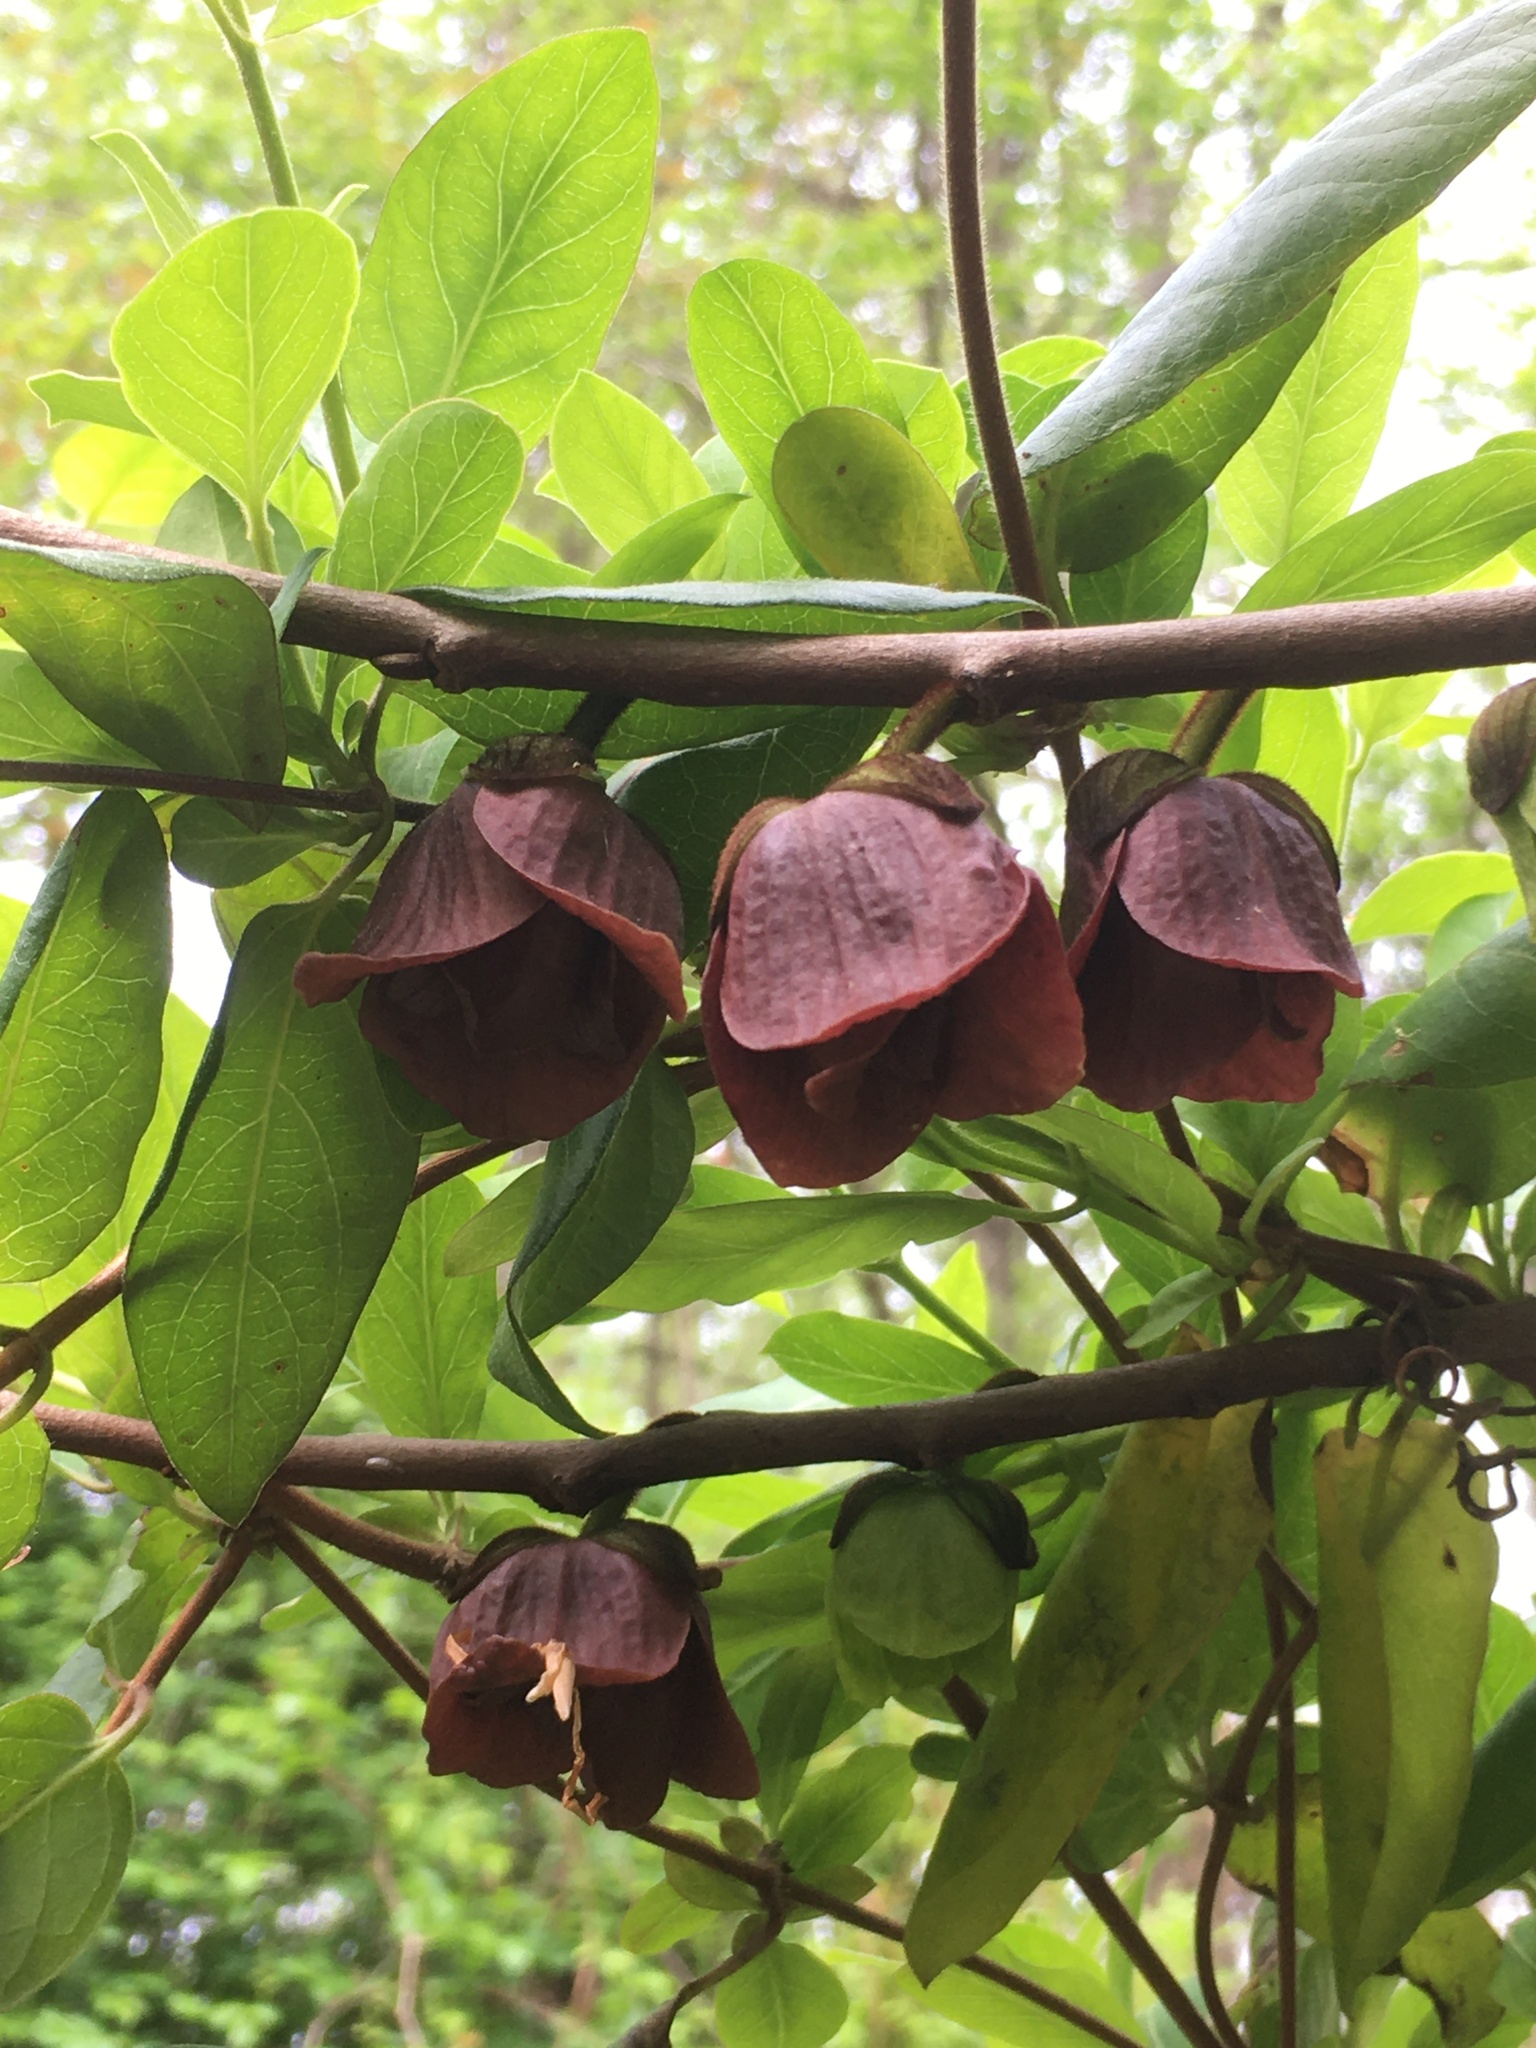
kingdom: Plantae
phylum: Tracheophyta
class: Magnoliopsida
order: Magnoliales
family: Annonaceae
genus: Asimina
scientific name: Asimina triloba
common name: Dog-banana
